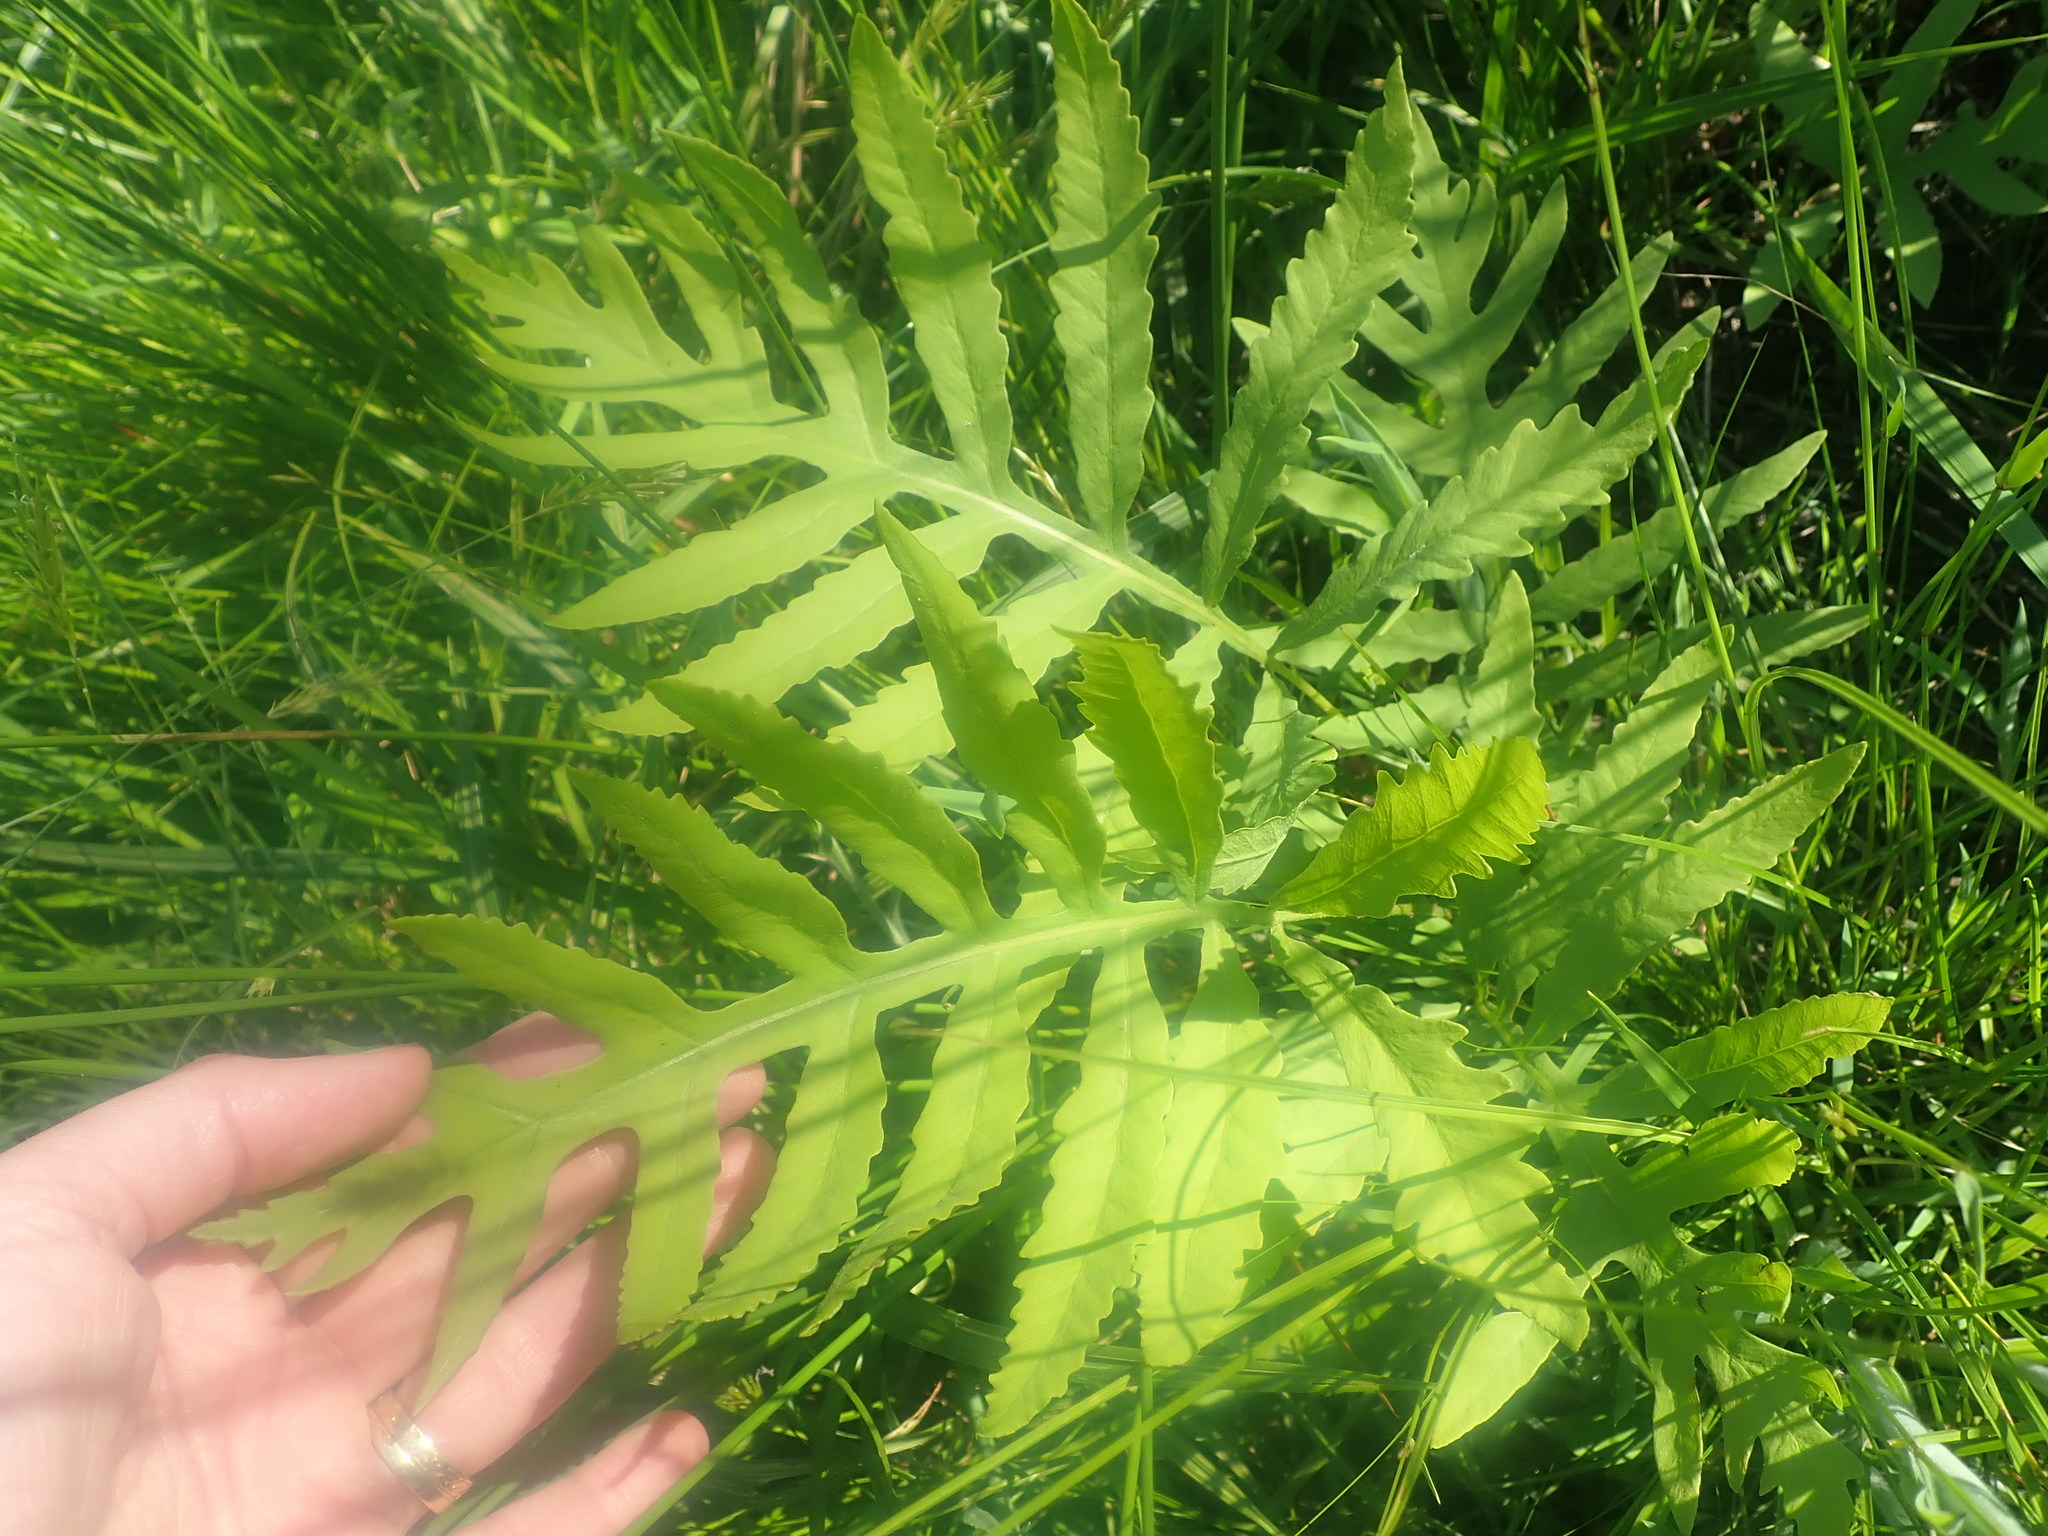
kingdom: Plantae
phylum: Tracheophyta
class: Polypodiopsida
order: Polypodiales
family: Onocleaceae
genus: Onoclea
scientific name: Onoclea sensibilis
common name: Sensitive fern
